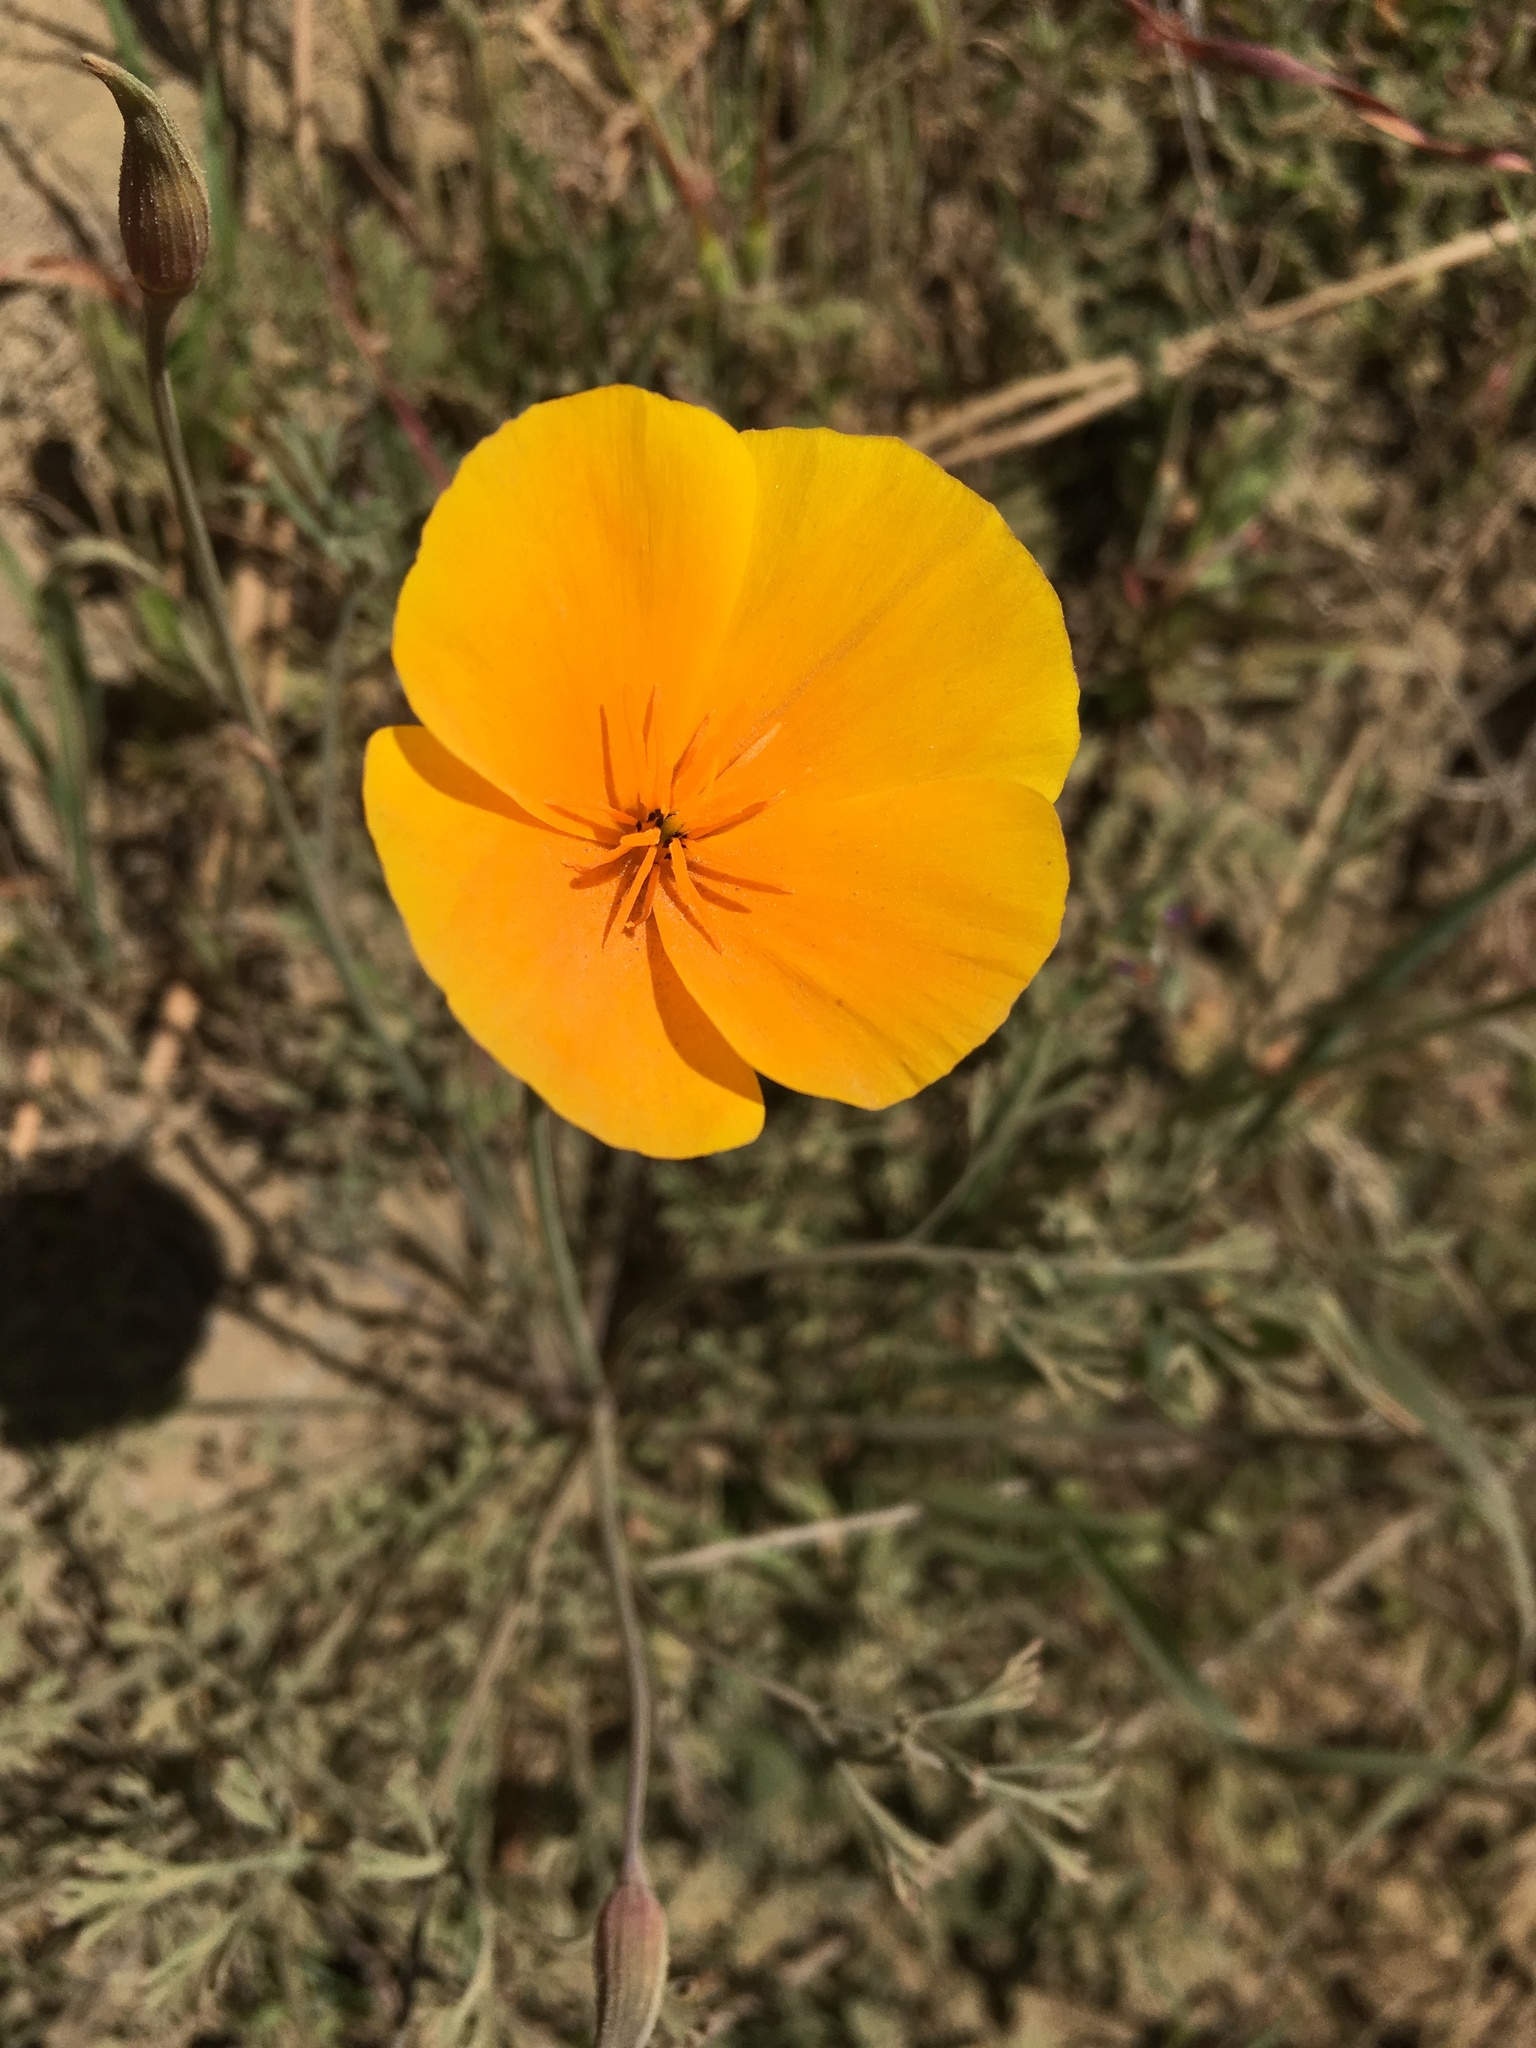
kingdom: Plantae
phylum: Tracheophyta
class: Magnoliopsida
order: Ranunculales
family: Papaveraceae
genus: Eschscholzia
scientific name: Eschscholzia caespitosa
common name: Tufted california-poppy
